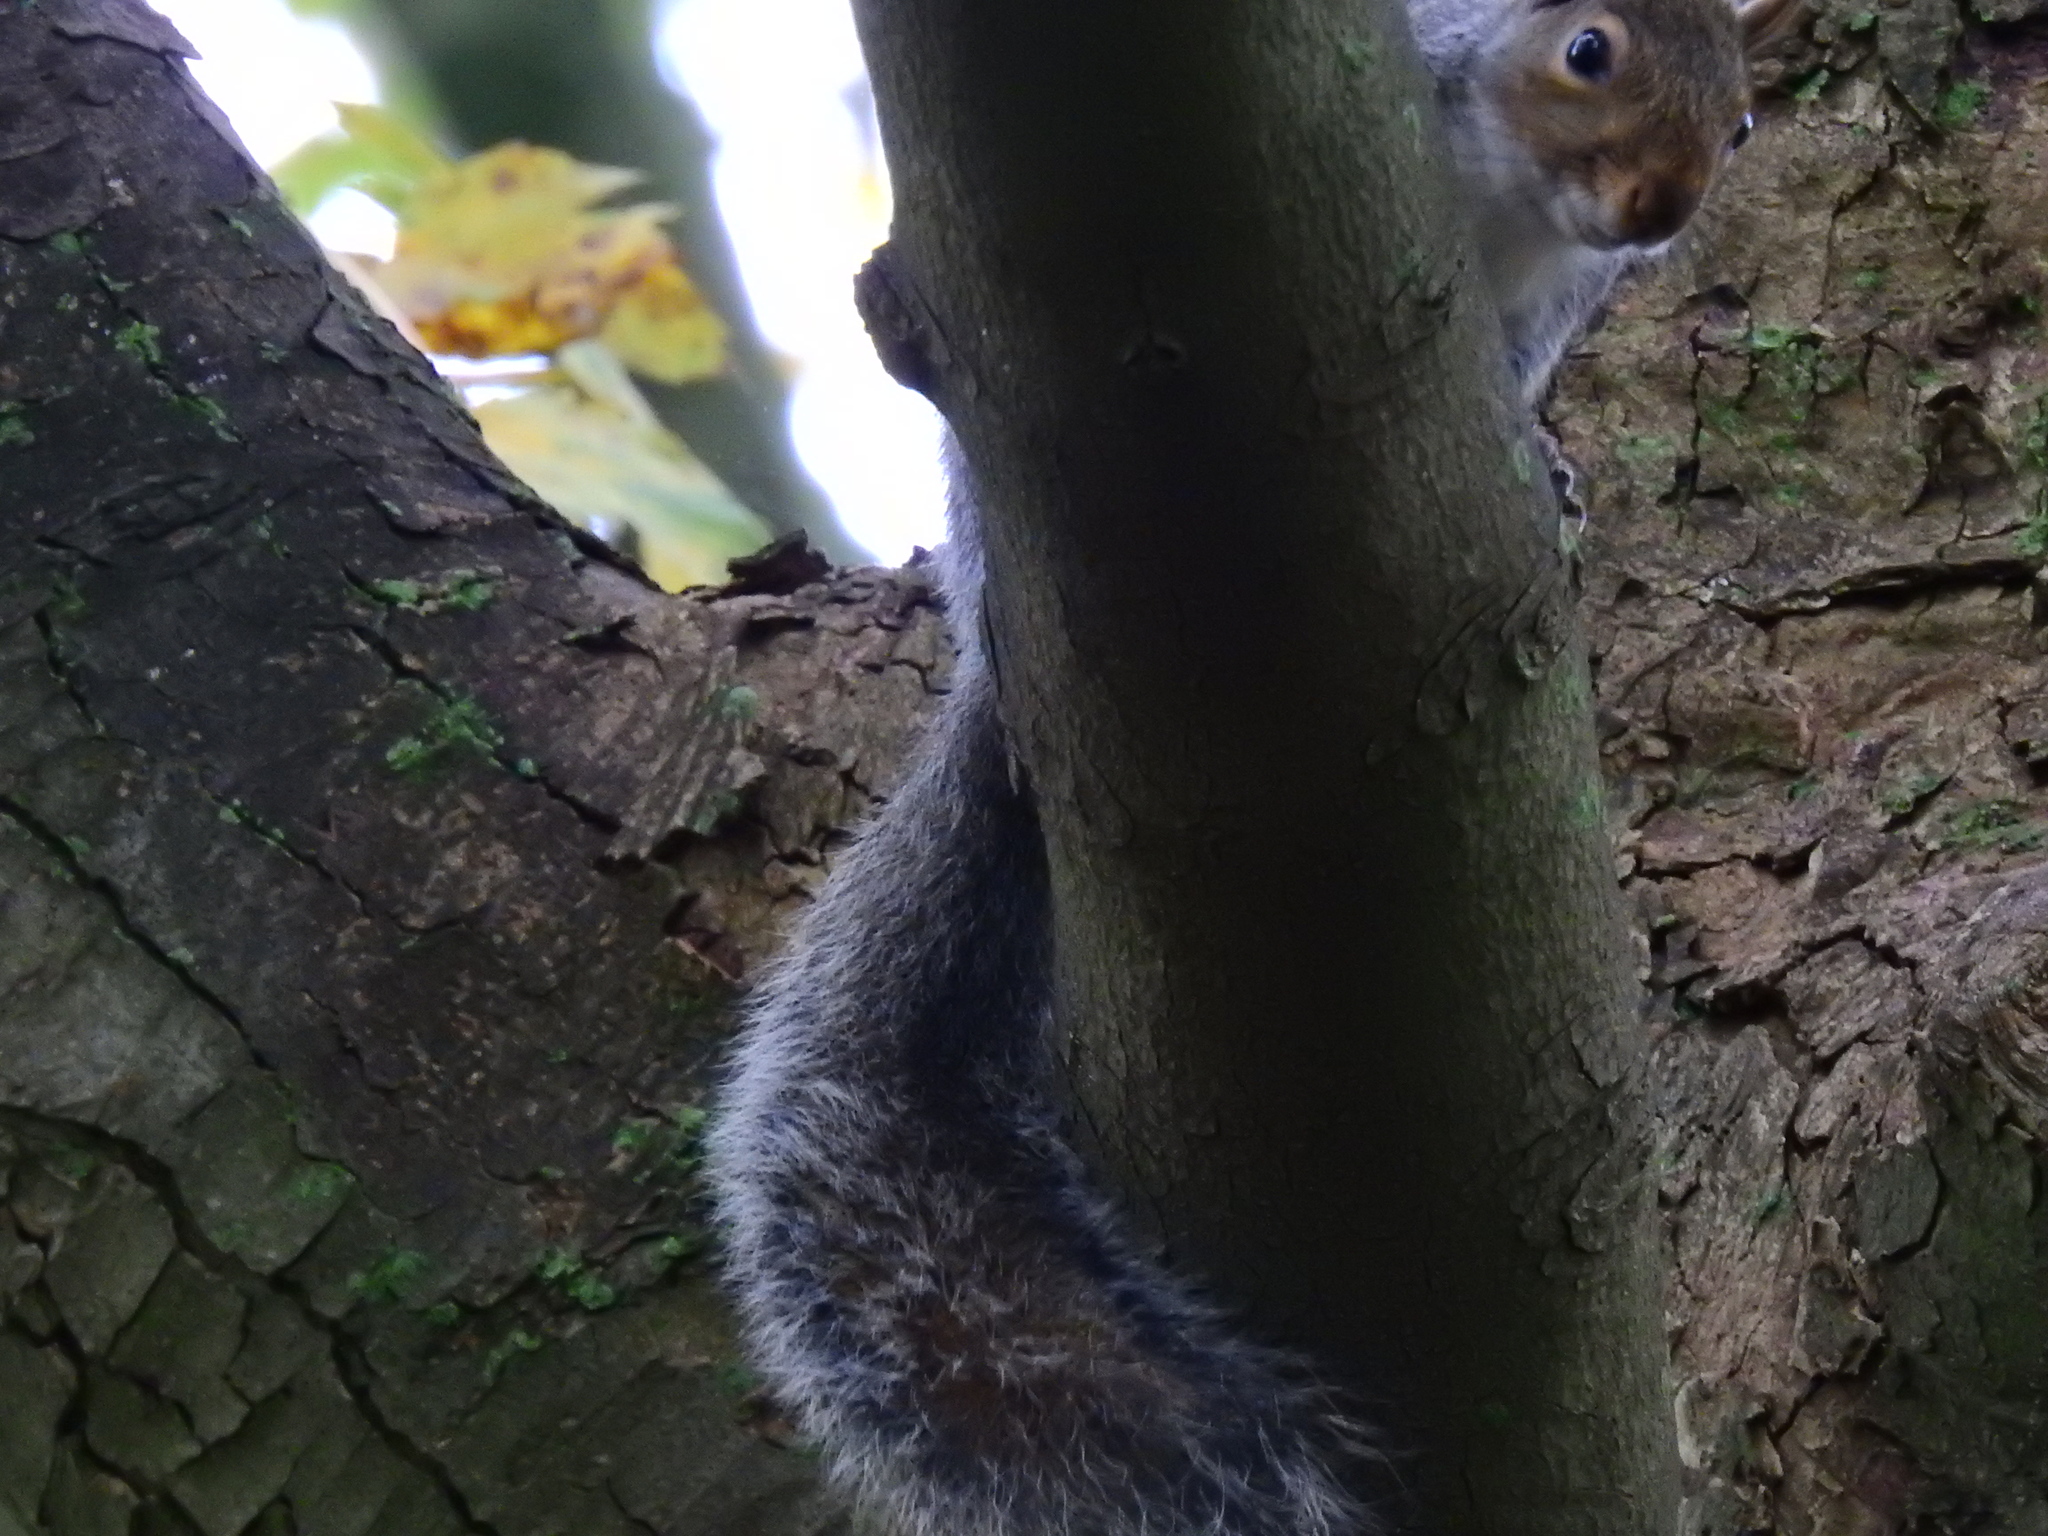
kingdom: Animalia
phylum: Chordata
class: Mammalia
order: Rodentia
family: Sciuridae
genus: Sciurus
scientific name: Sciurus carolinensis
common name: Eastern gray squirrel
